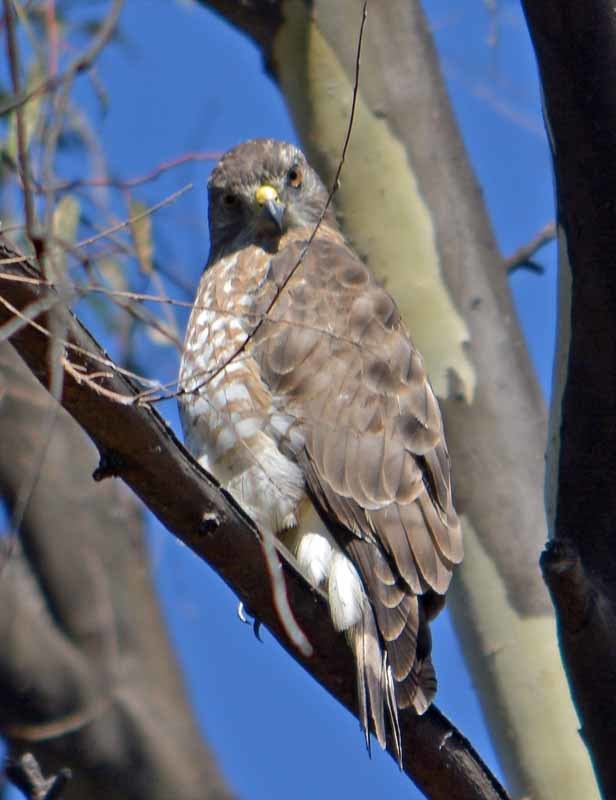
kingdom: Animalia
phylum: Chordata
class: Aves
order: Accipitriformes
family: Accipitridae
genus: Buteo
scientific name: Buteo platypterus
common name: Broad-winged hawk
